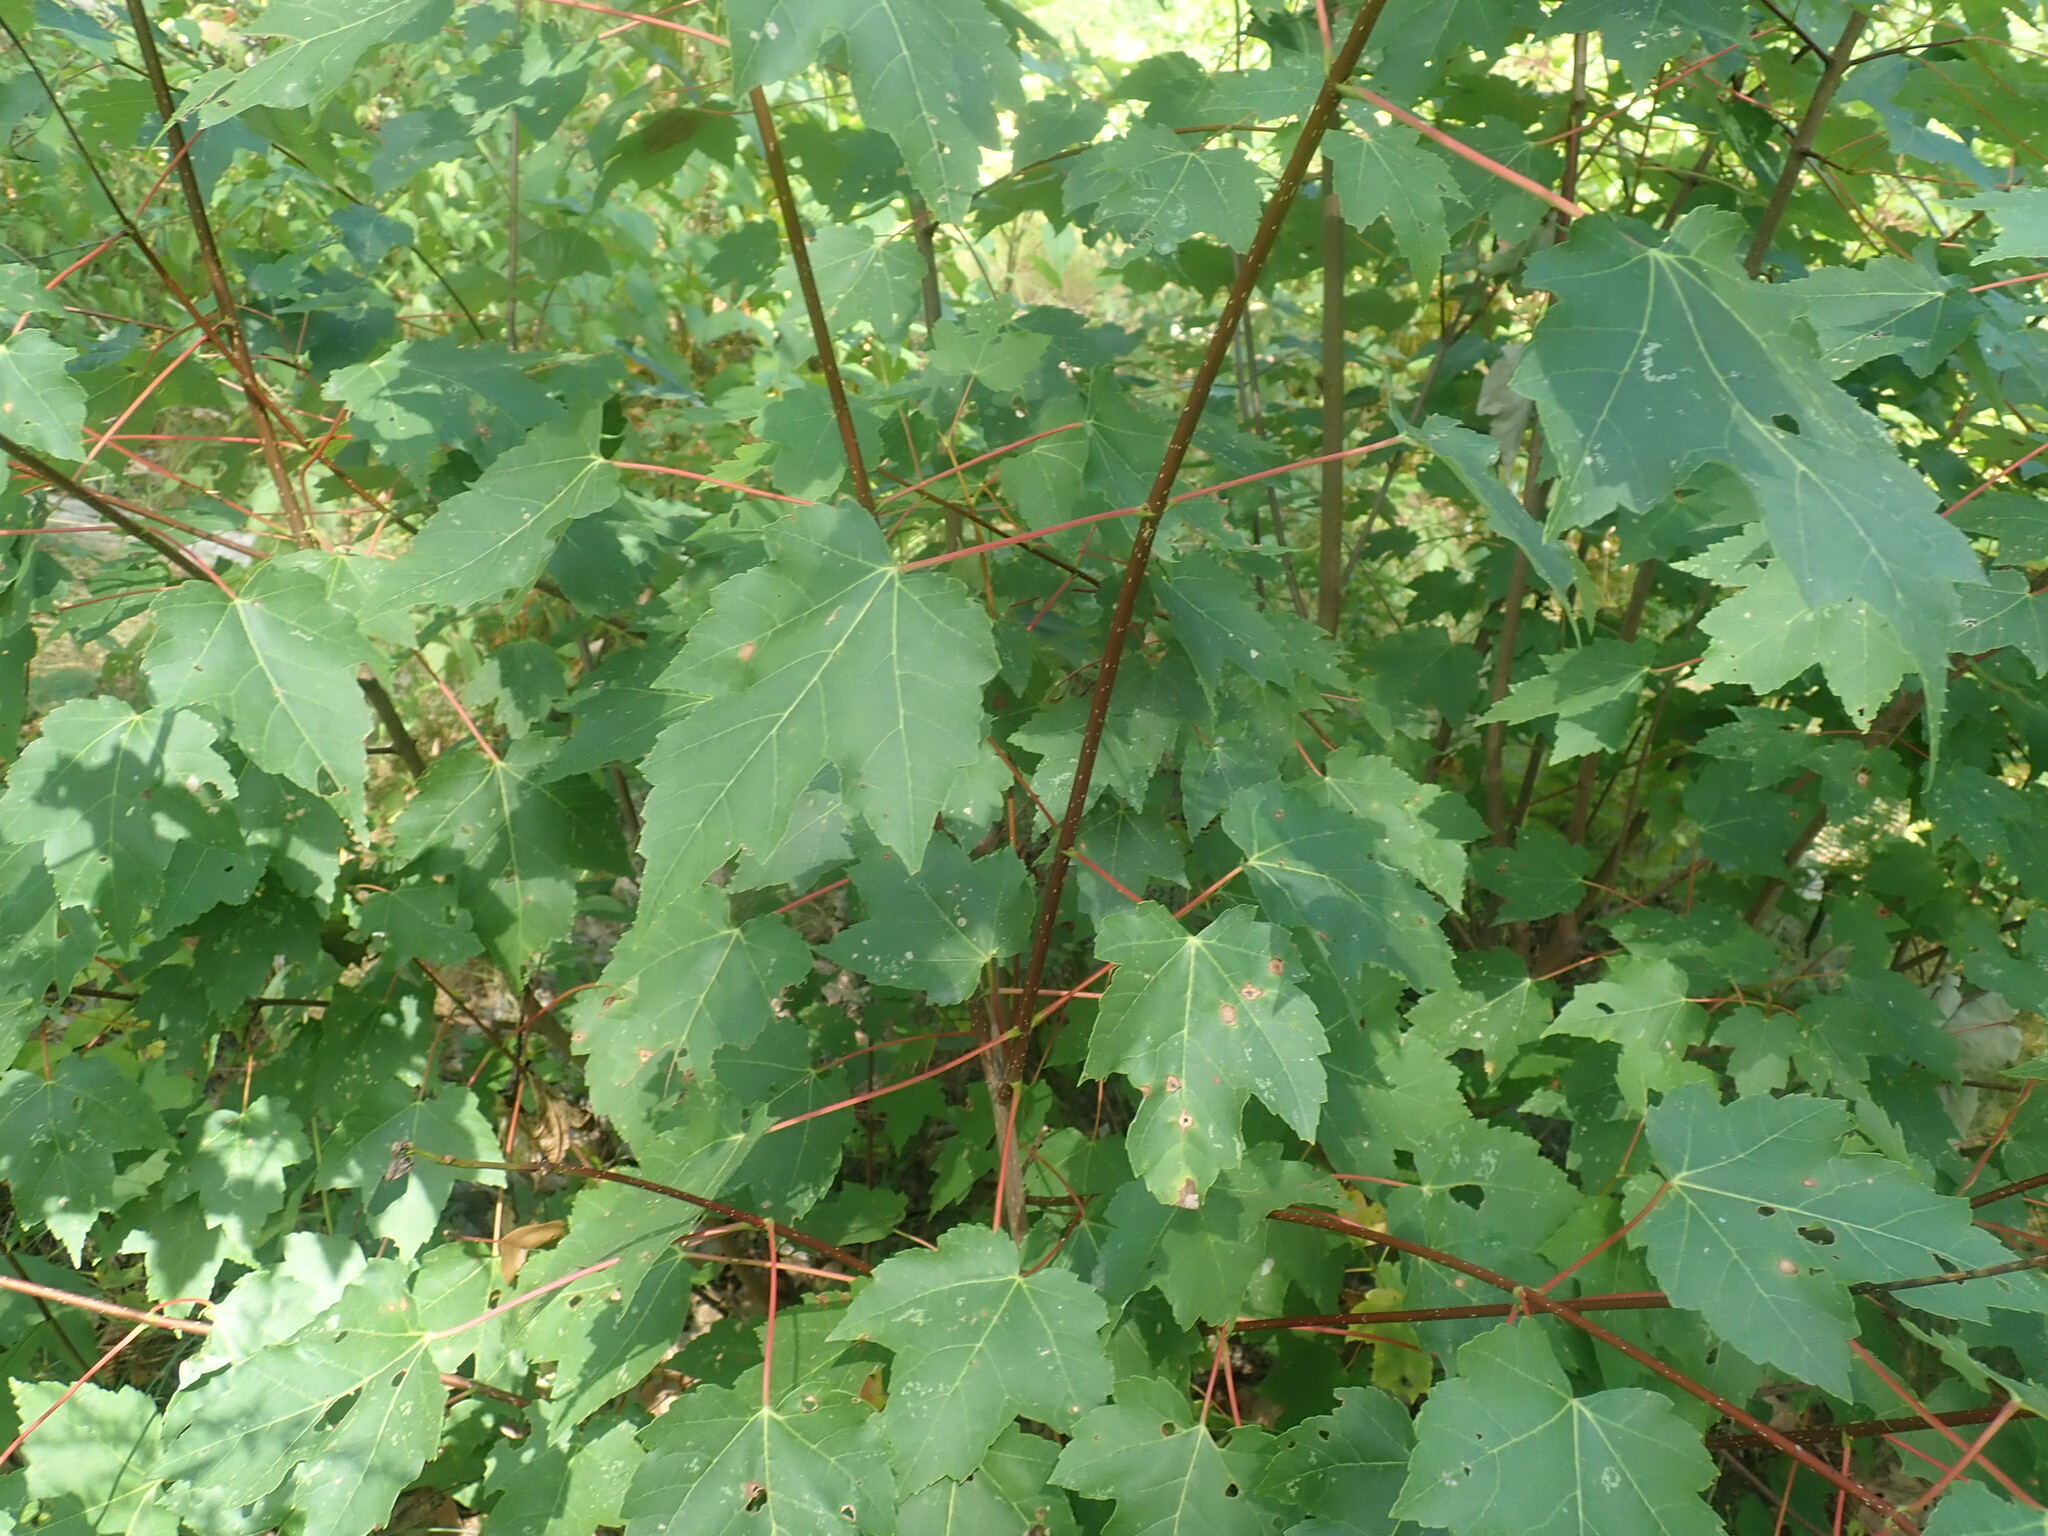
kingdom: Plantae
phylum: Tracheophyta
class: Magnoliopsida
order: Sapindales
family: Sapindaceae
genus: Acer
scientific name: Acer rubrum
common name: Red maple
